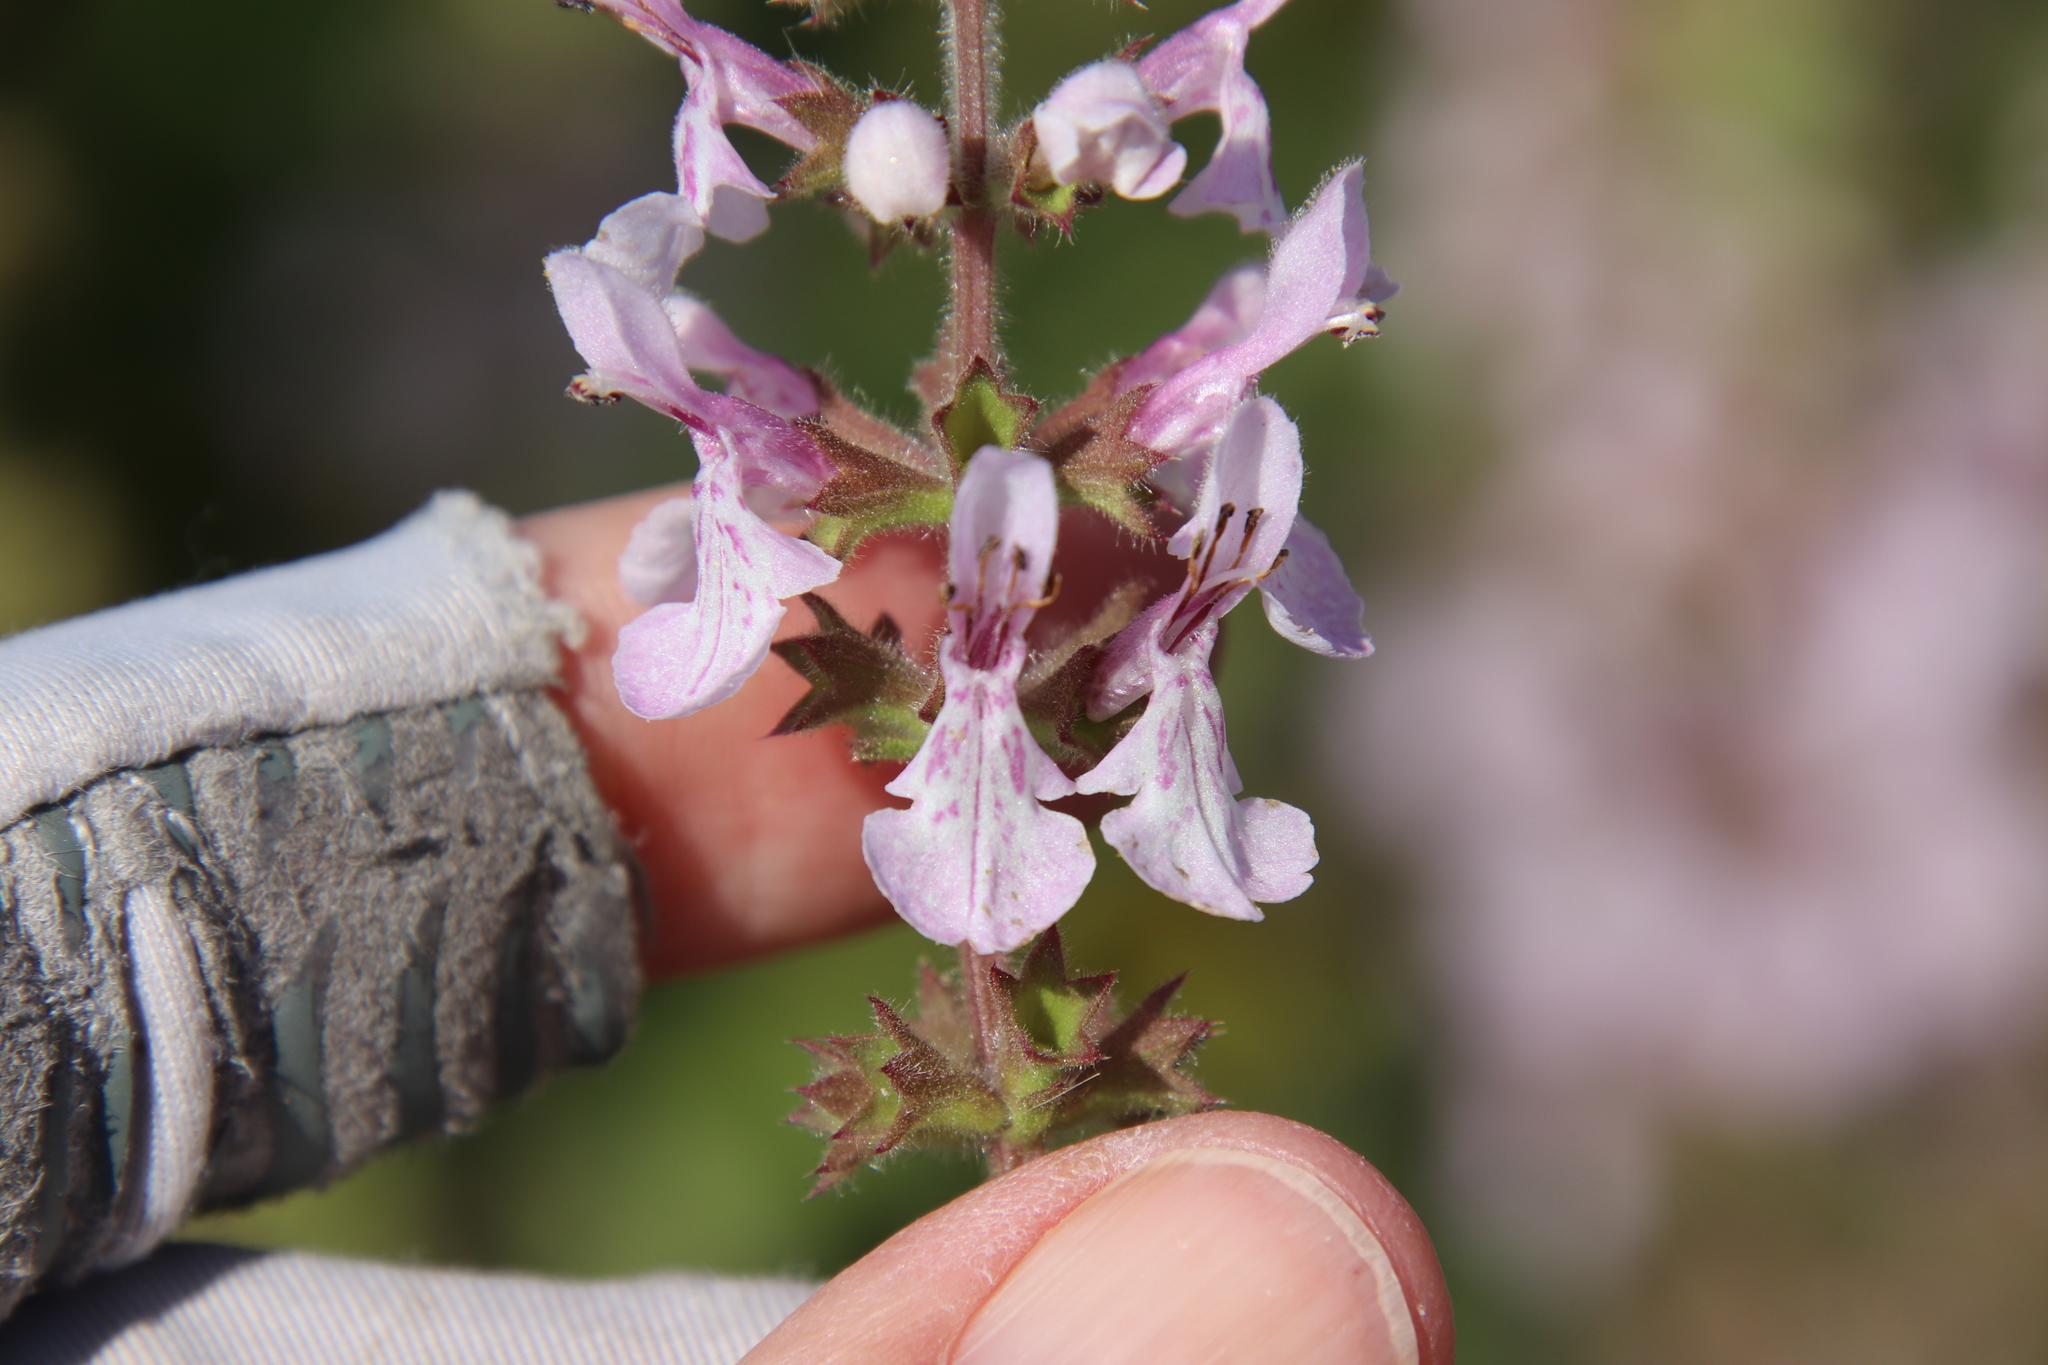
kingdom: Plantae
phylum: Tracheophyta
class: Magnoliopsida
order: Lamiales
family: Lamiaceae
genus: Stachys
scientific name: Stachys rigida
